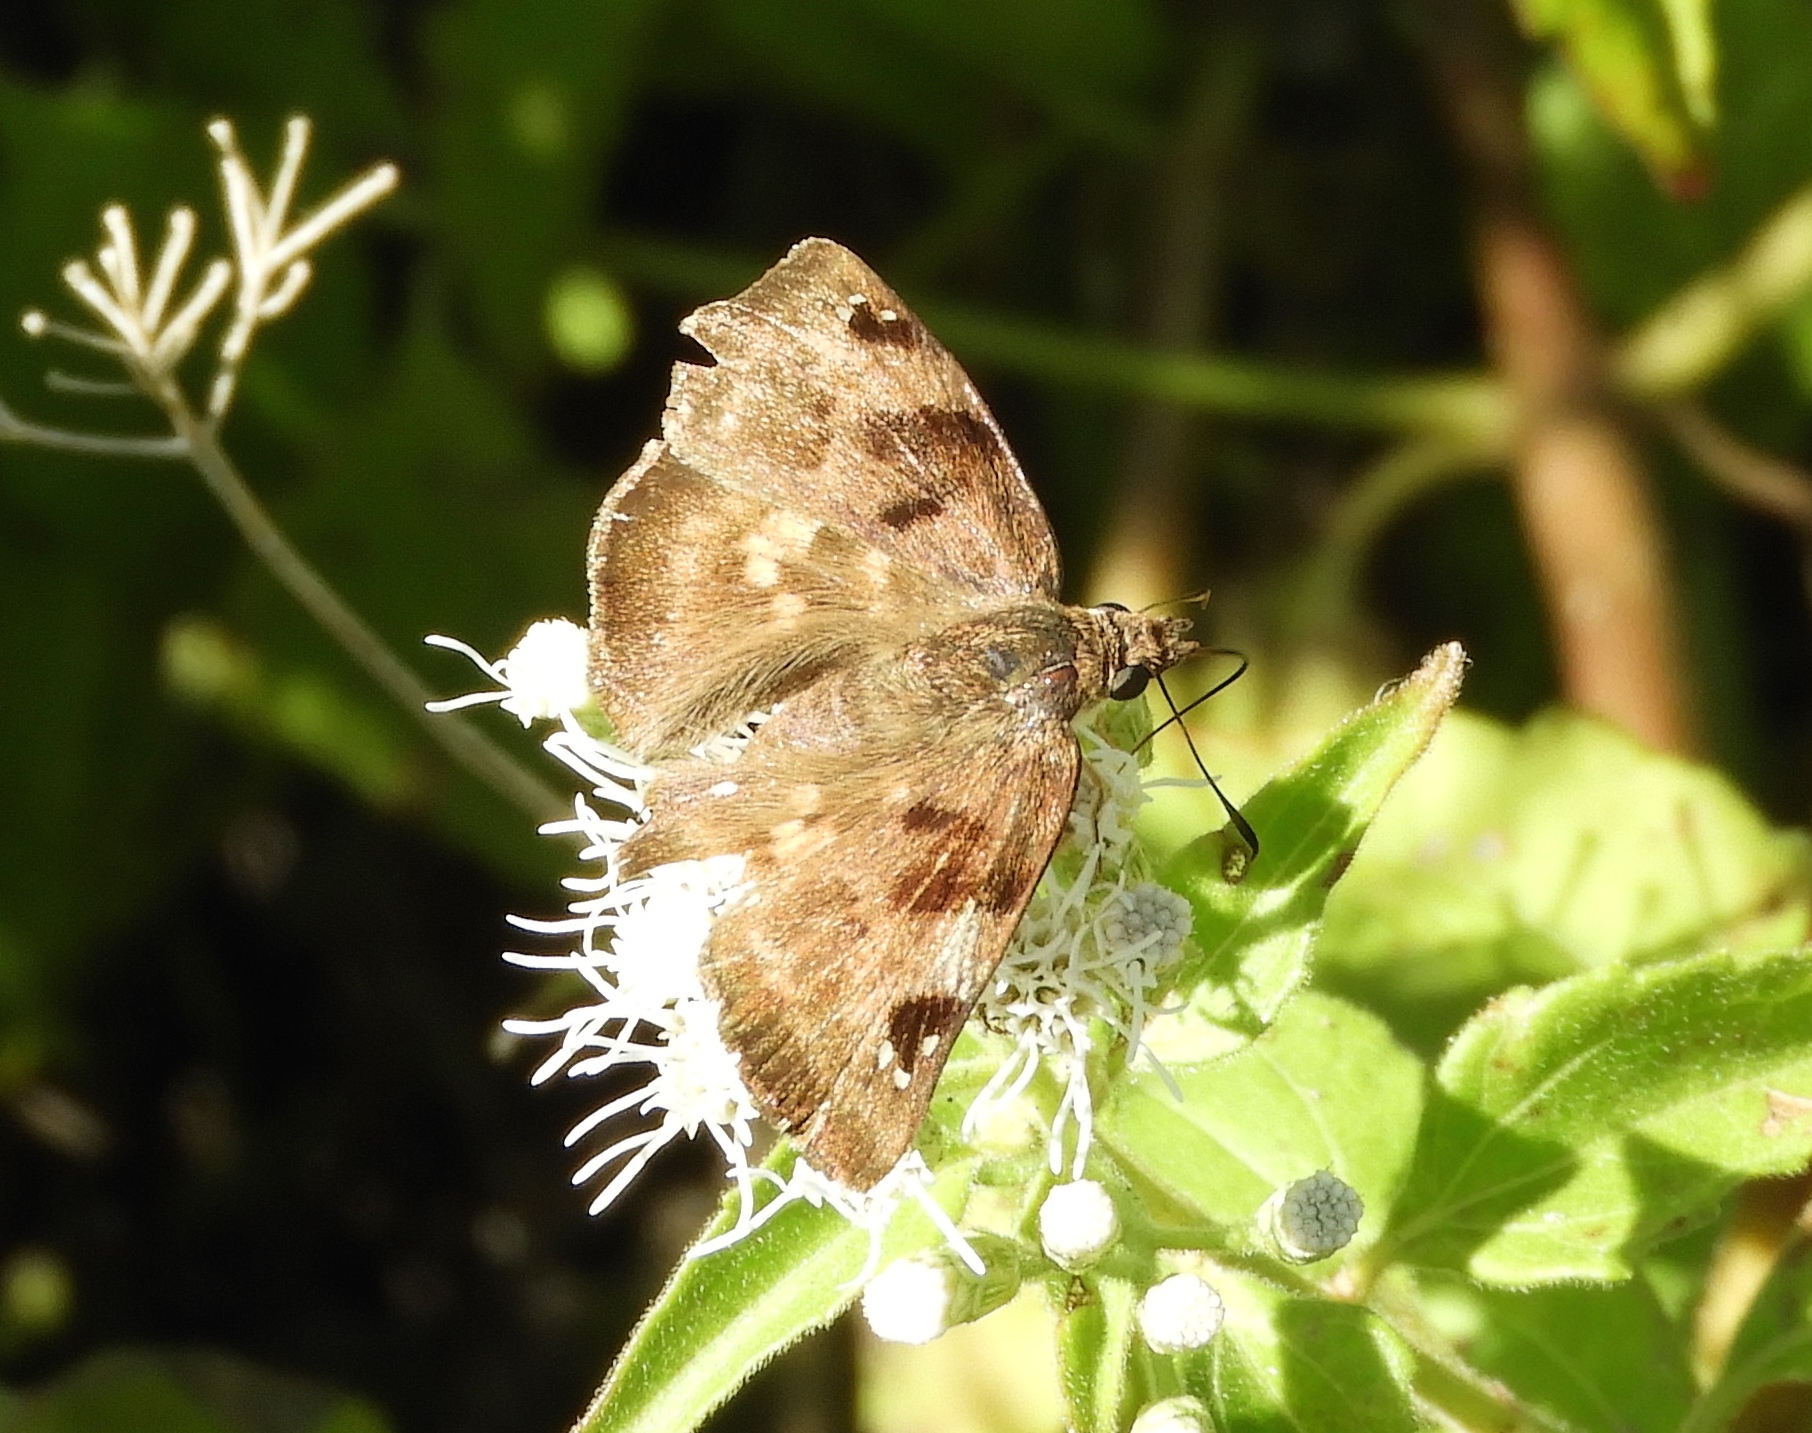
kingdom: Animalia
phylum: Arthropoda
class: Insecta
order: Lepidoptera
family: Hesperiidae
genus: Arteurotia
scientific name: Arteurotia tractipennis
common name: Starred skipper
